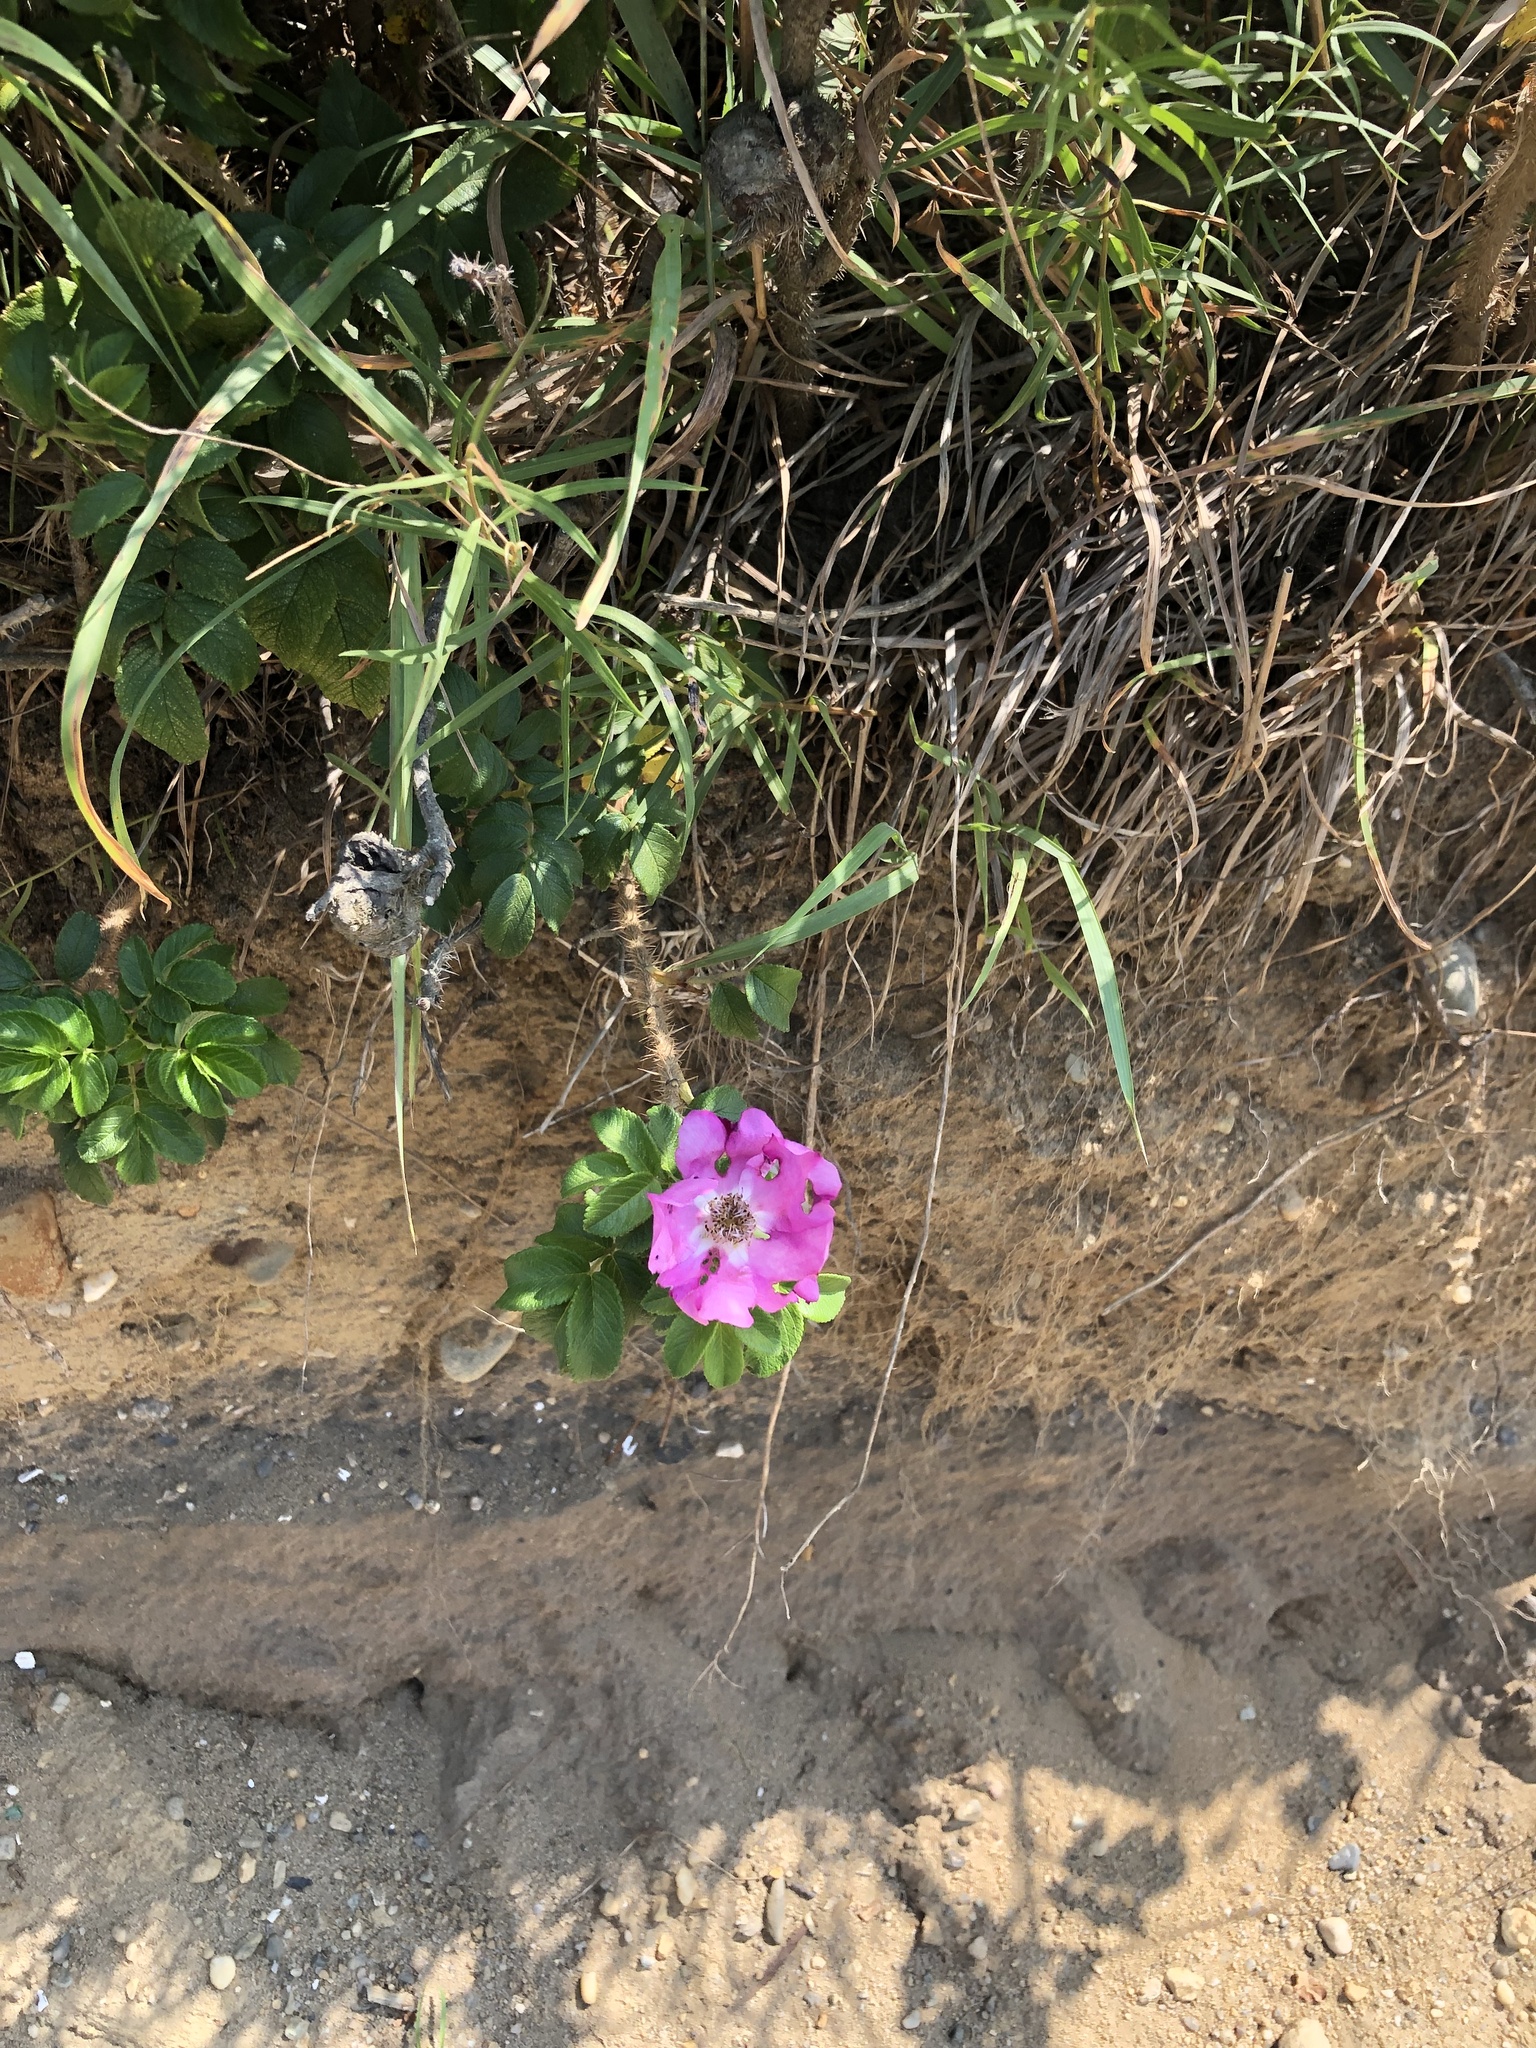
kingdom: Plantae
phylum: Tracheophyta
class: Magnoliopsida
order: Rosales
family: Rosaceae
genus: Rosa
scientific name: Rosa rugosa
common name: Japanese rose
